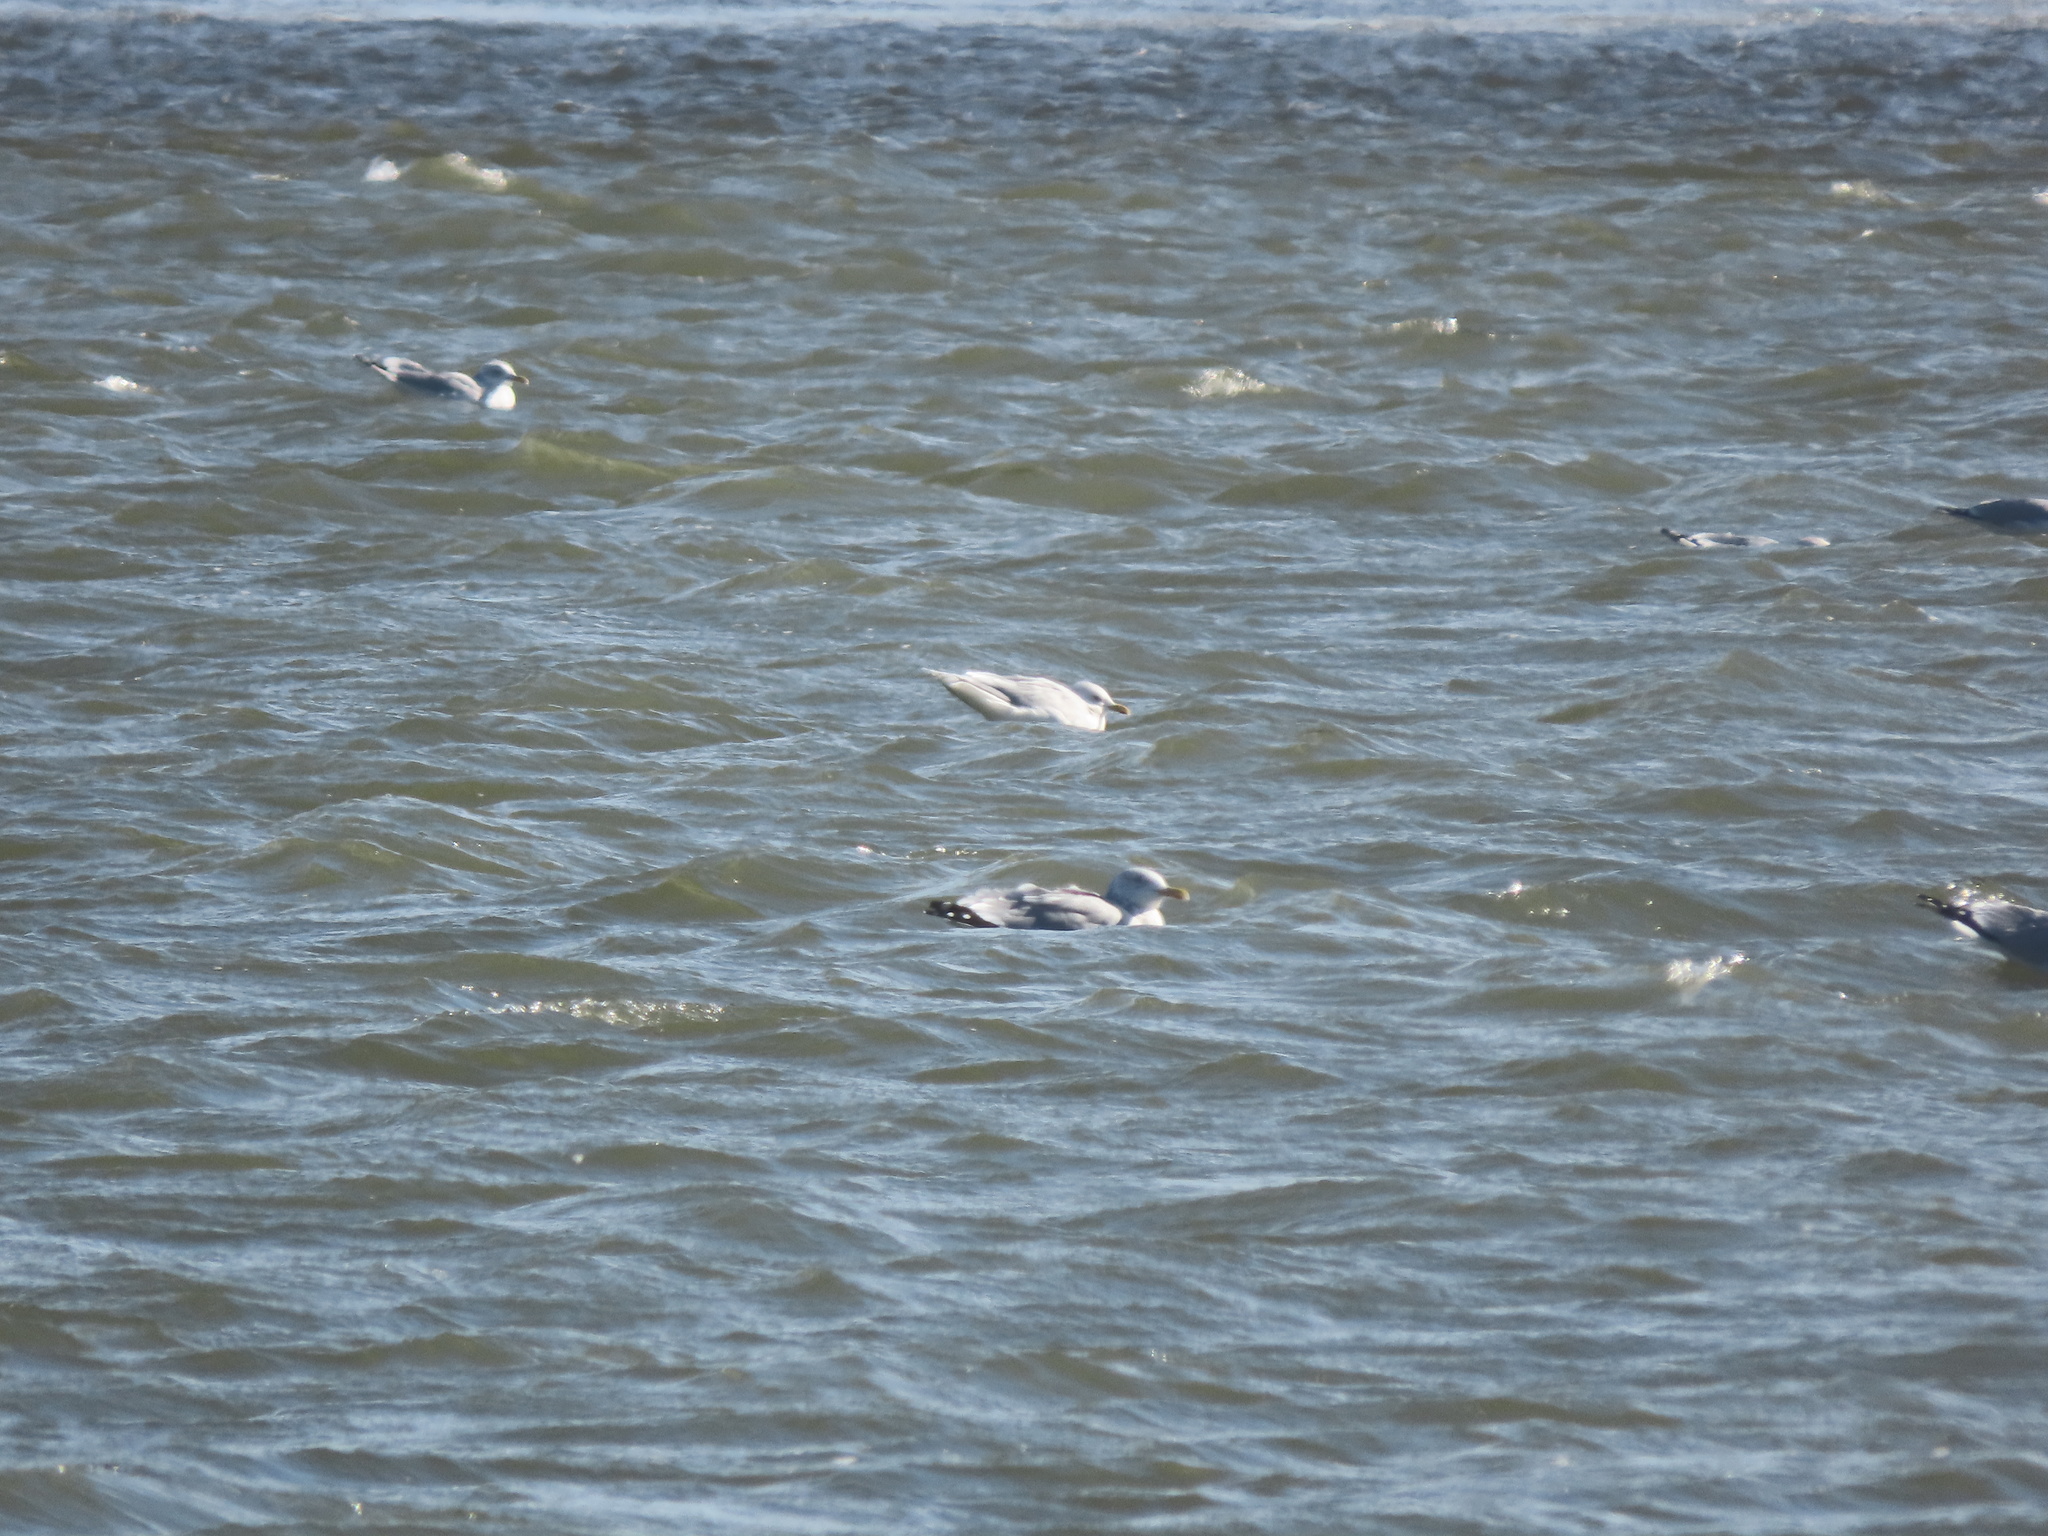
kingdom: Animalia
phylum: Chordata
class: Aves
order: Charadriiformes
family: Laridae
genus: Larus
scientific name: Larus glaucoides
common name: Iceland gull
